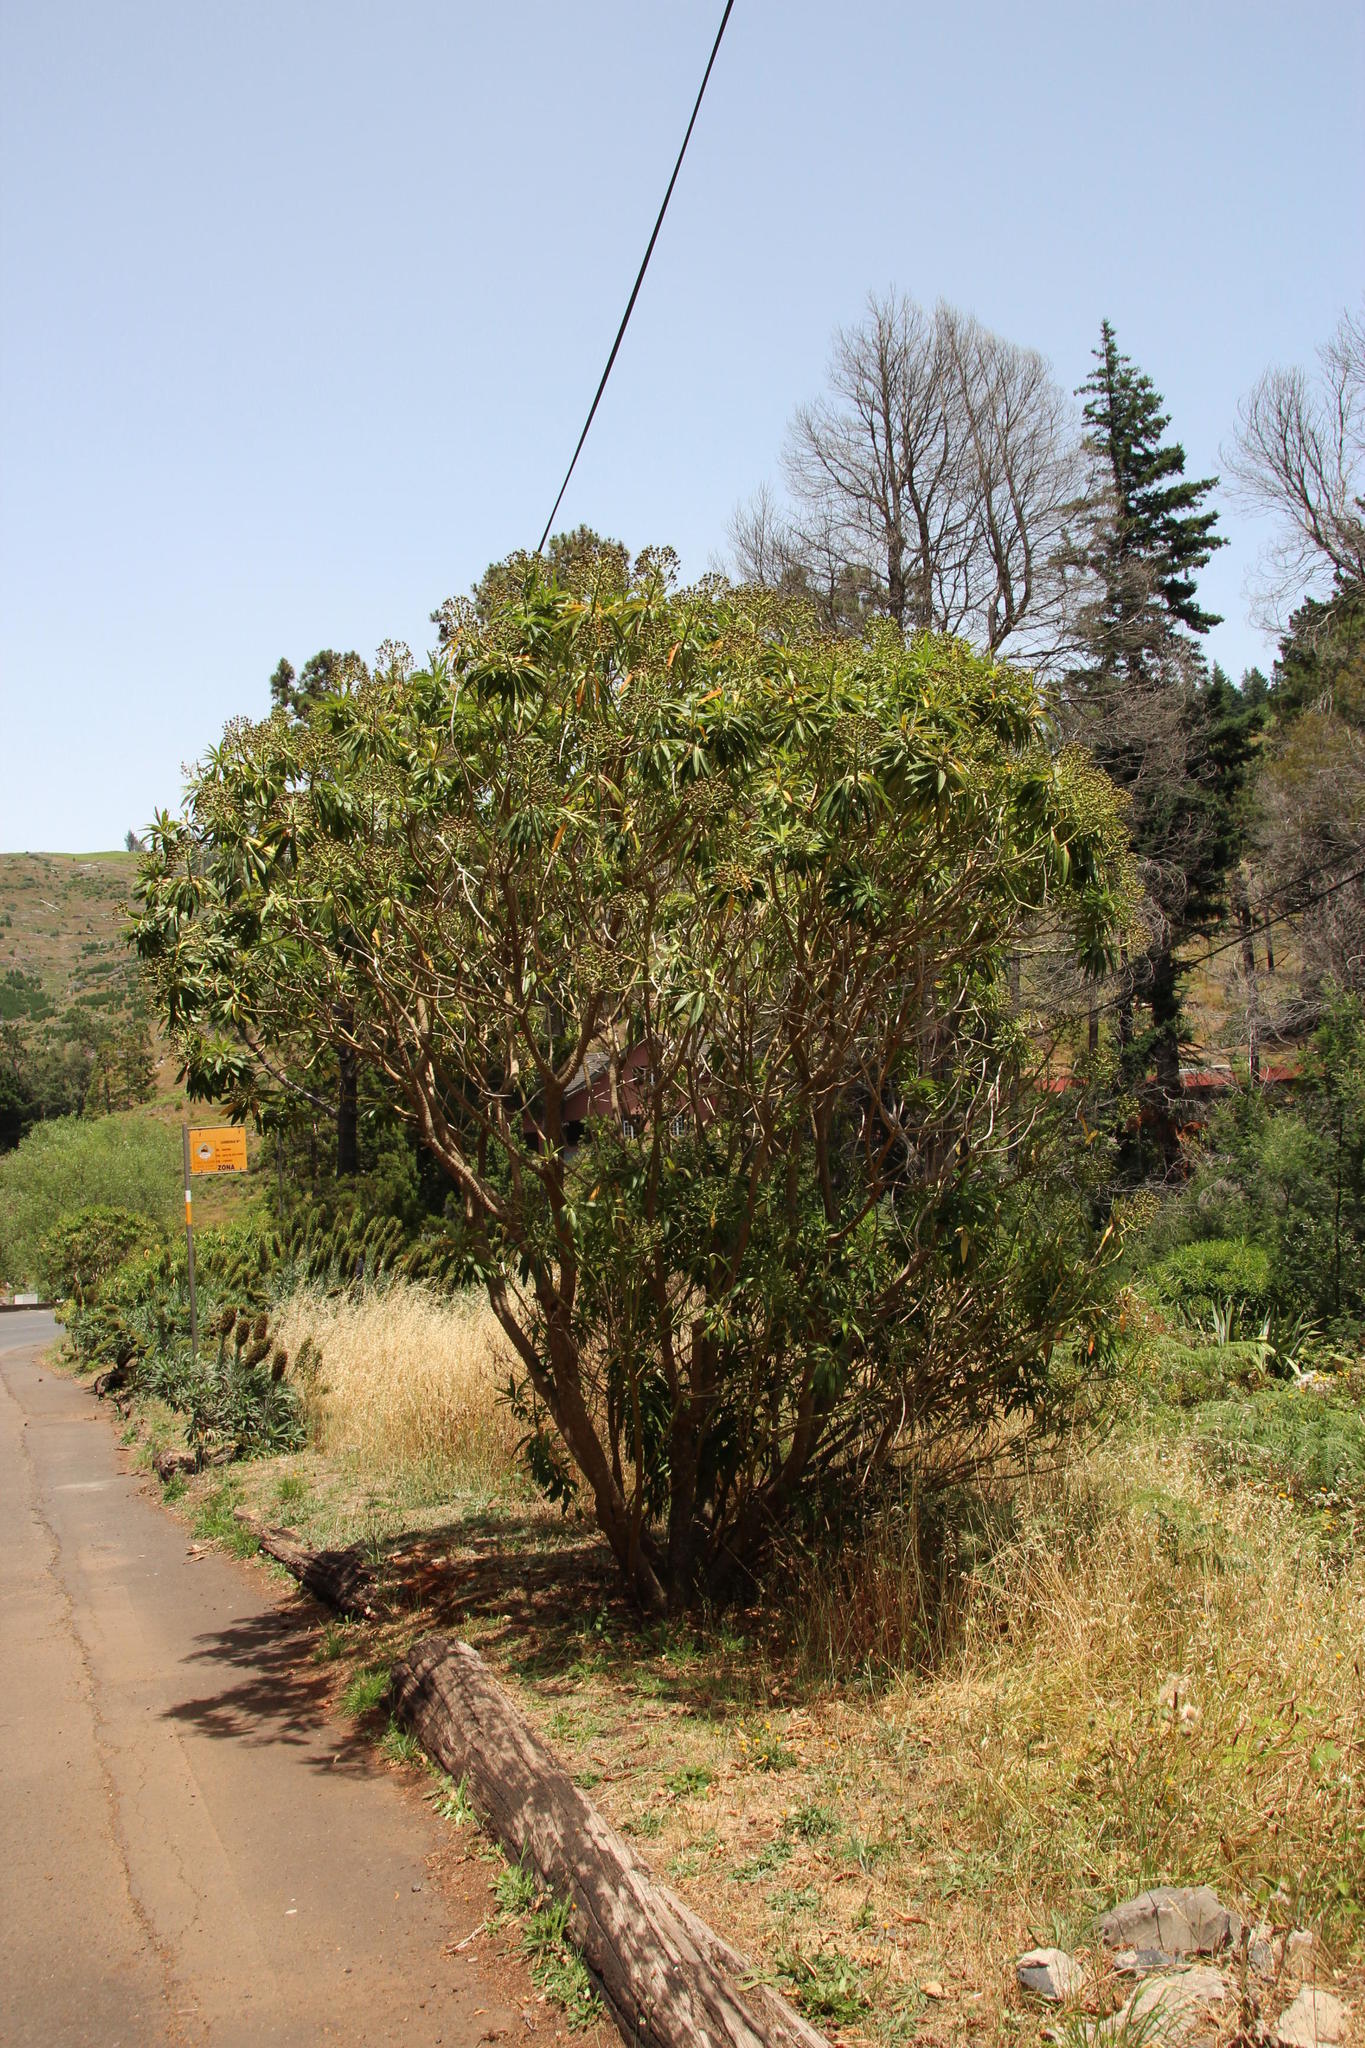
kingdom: Plantae
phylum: Tracheophyta
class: Magnoliopsida
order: Malpighiales
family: Euphorbiaceae
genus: Euphorbia
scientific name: Euphorbia mellifera
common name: Canary spurge
